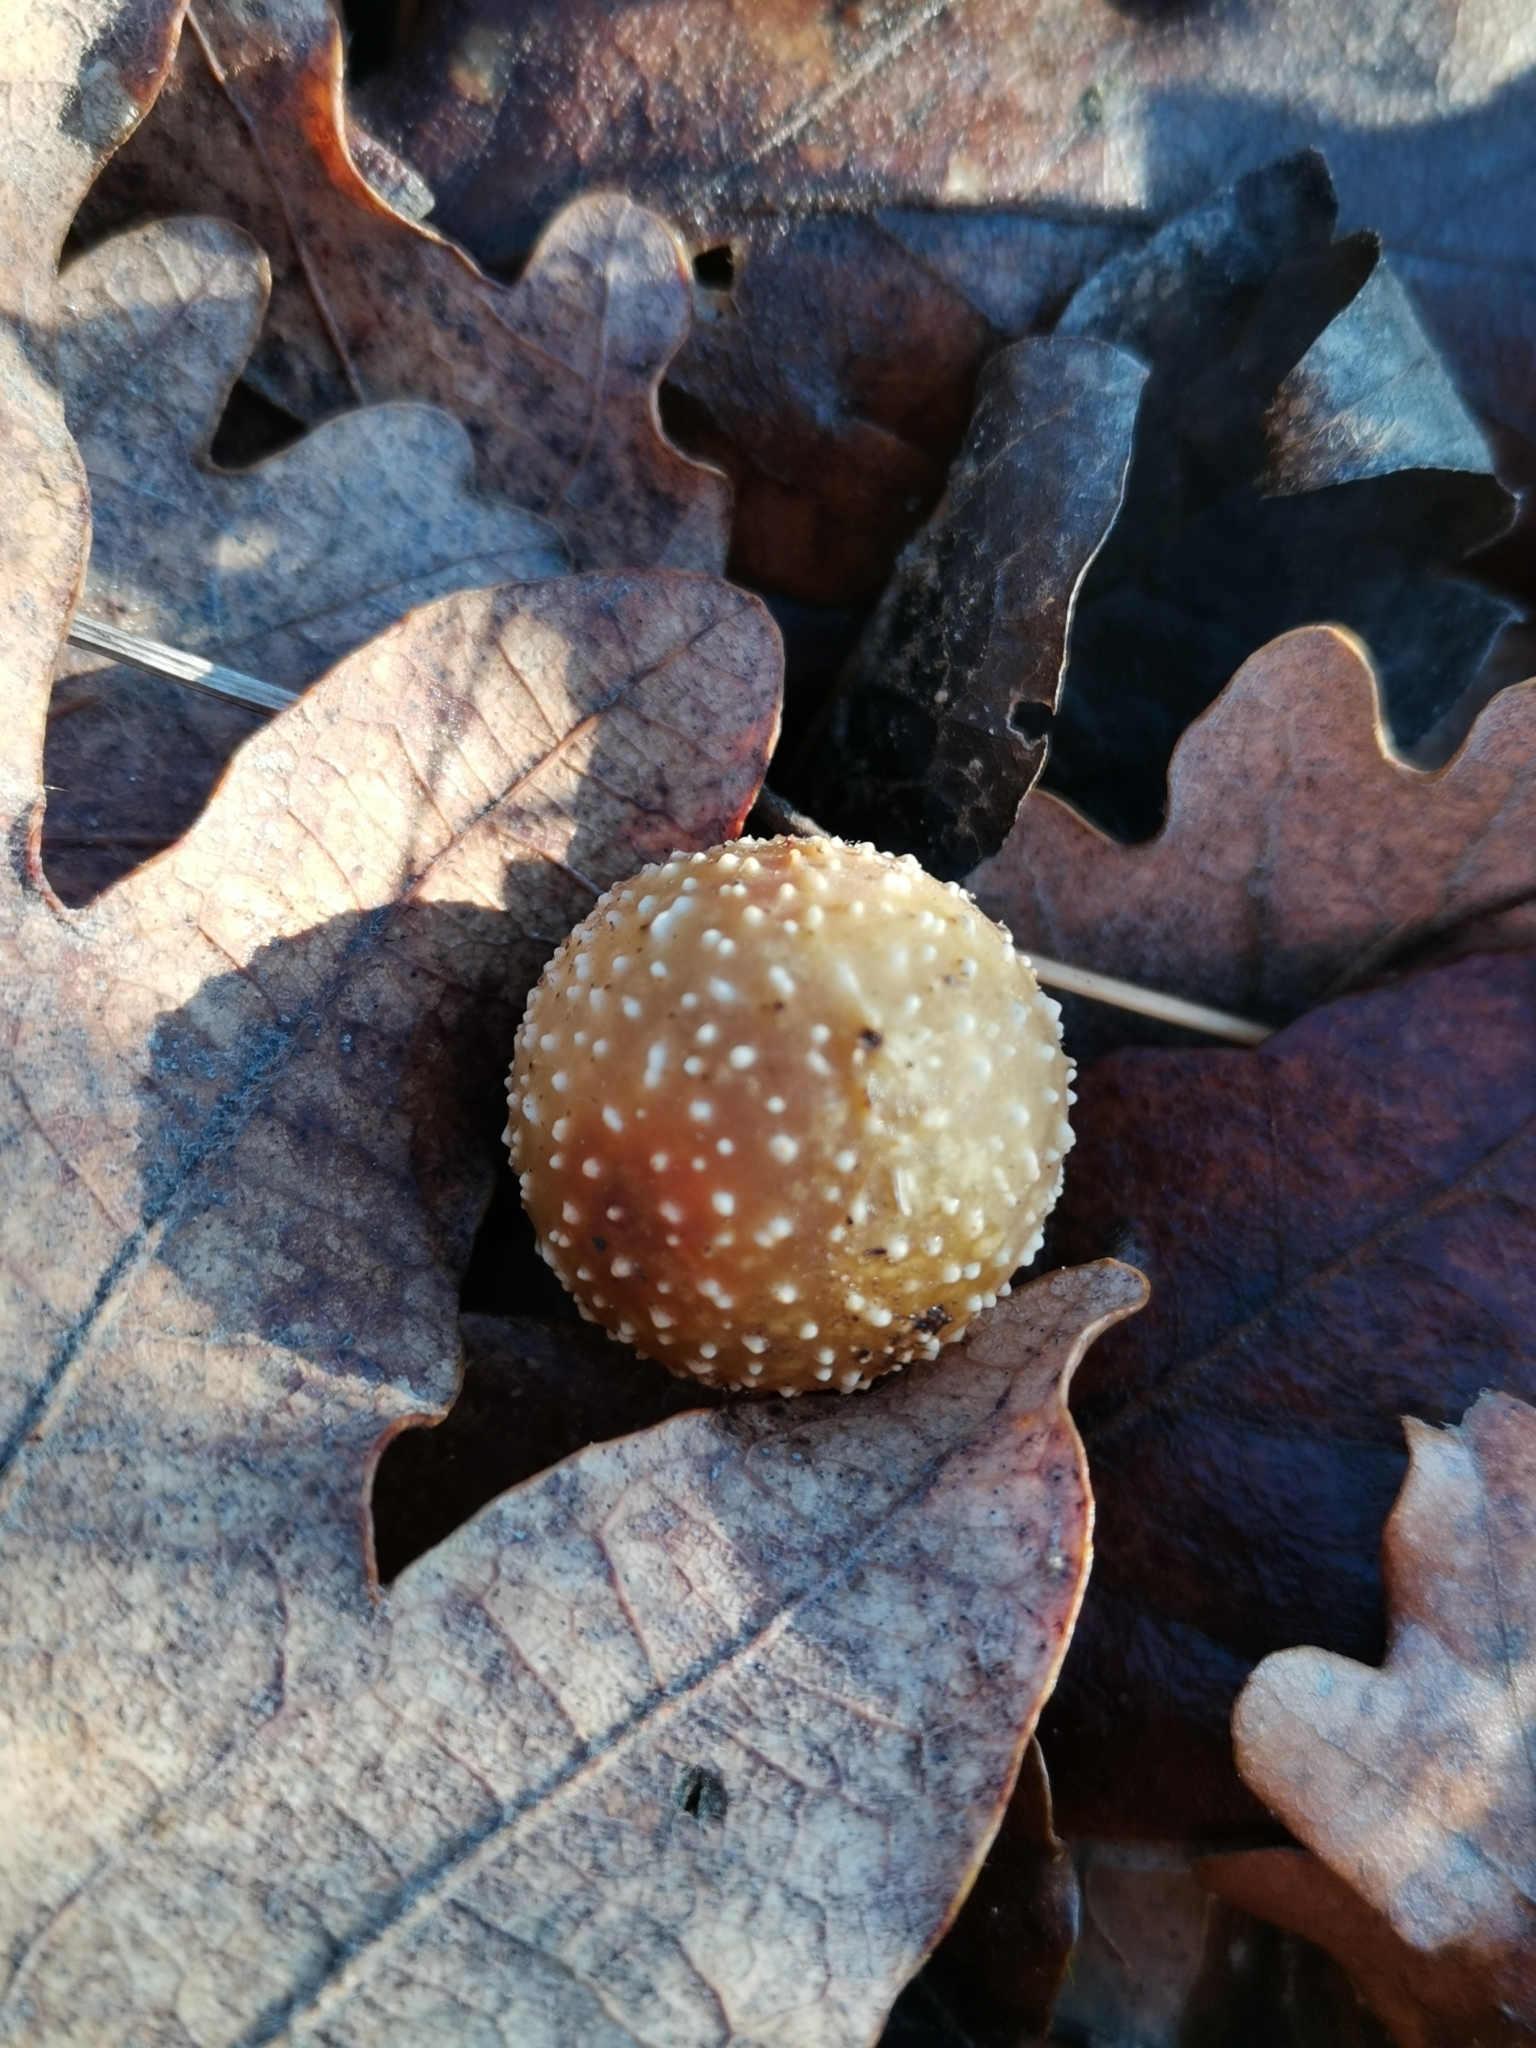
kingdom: Animalia
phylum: Arthropoda
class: Insecta
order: Hymenoptera
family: Cynipidae
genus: Cynips
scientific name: Cynips quercusfolii
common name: Cherry gall
